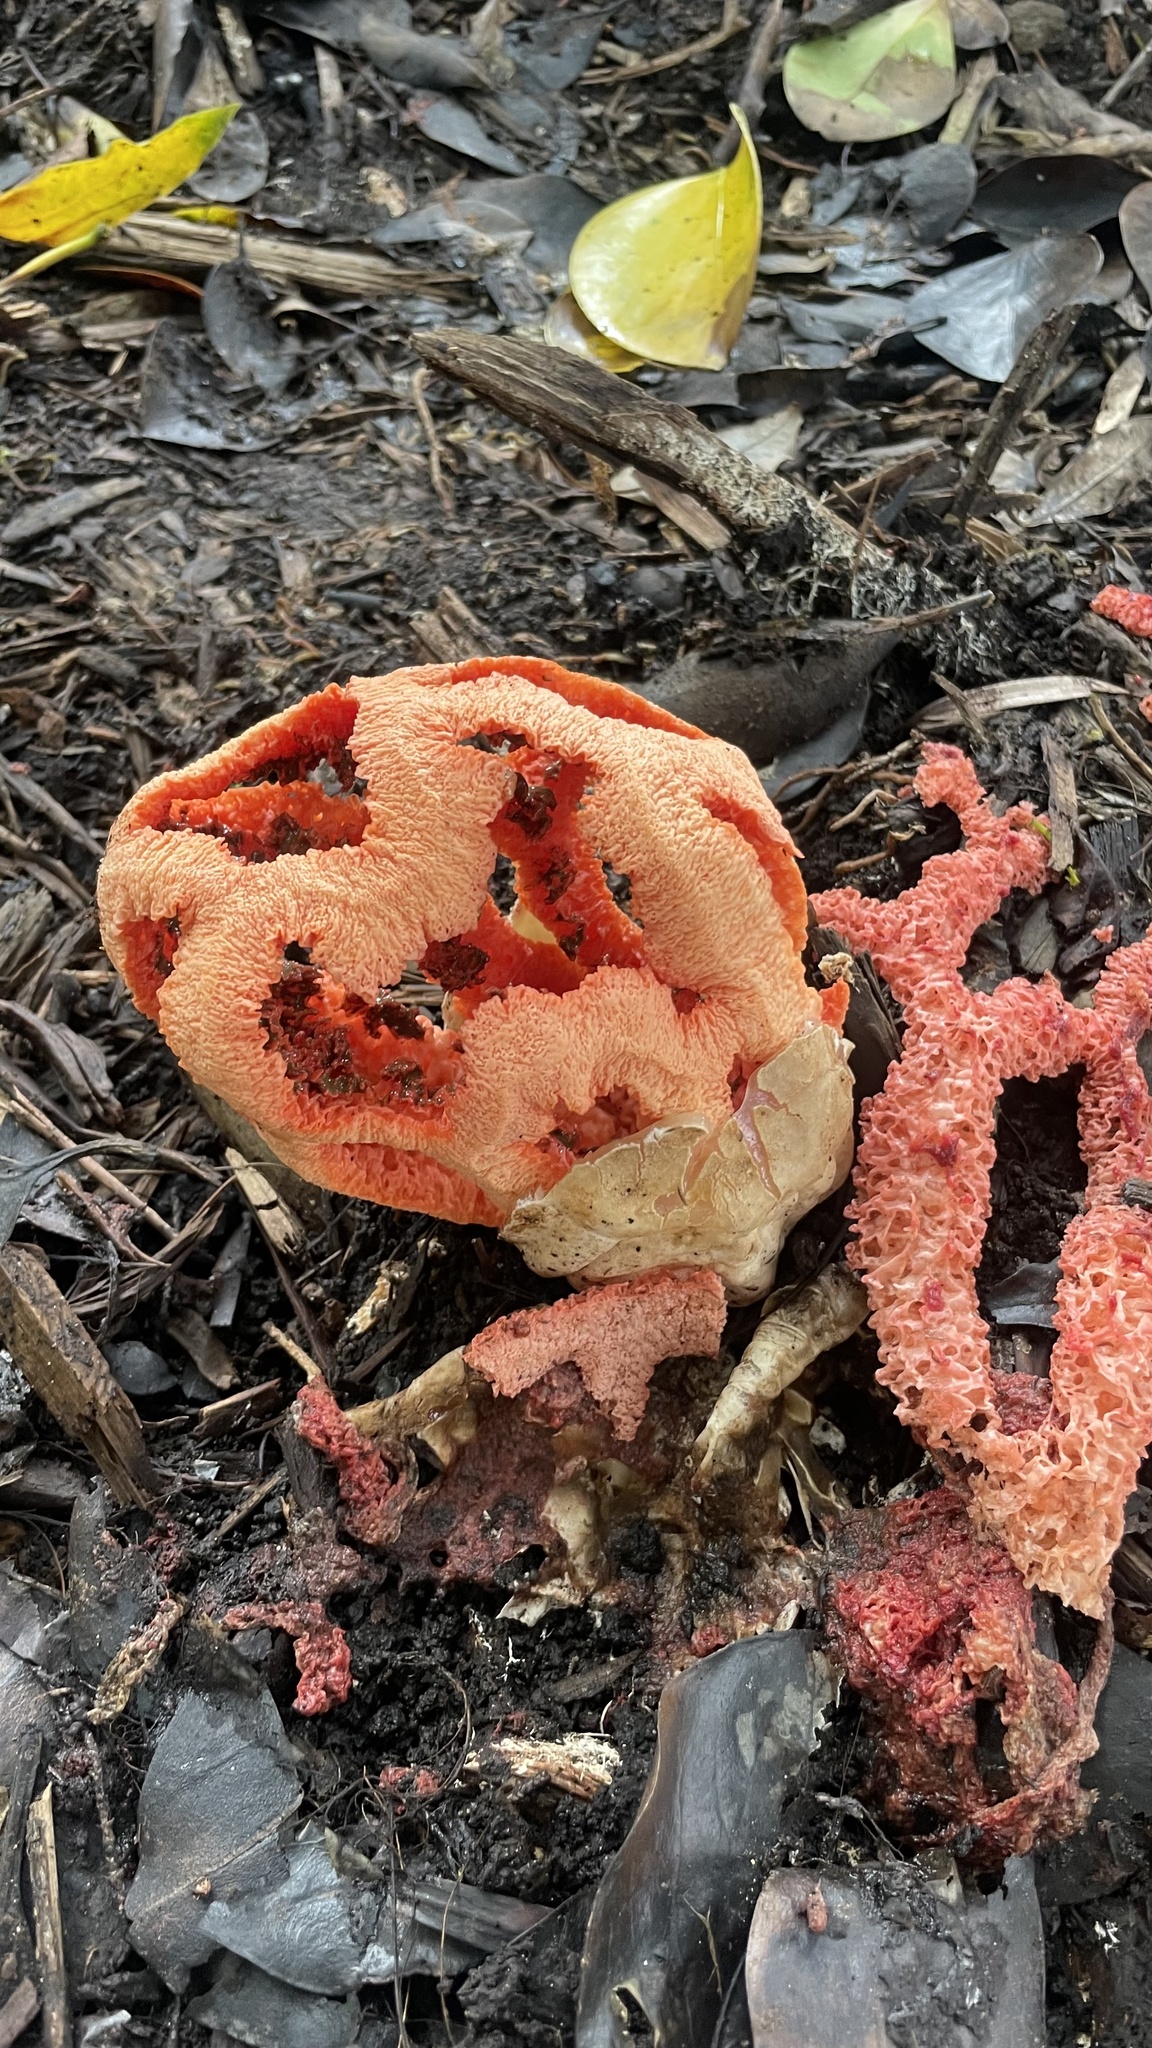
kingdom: Fungi
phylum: Basidiomycota
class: Agaricomycetes
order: Phallales
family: Phallaceae
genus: Clathrus
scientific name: Clathrus ruber
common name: Red cage
